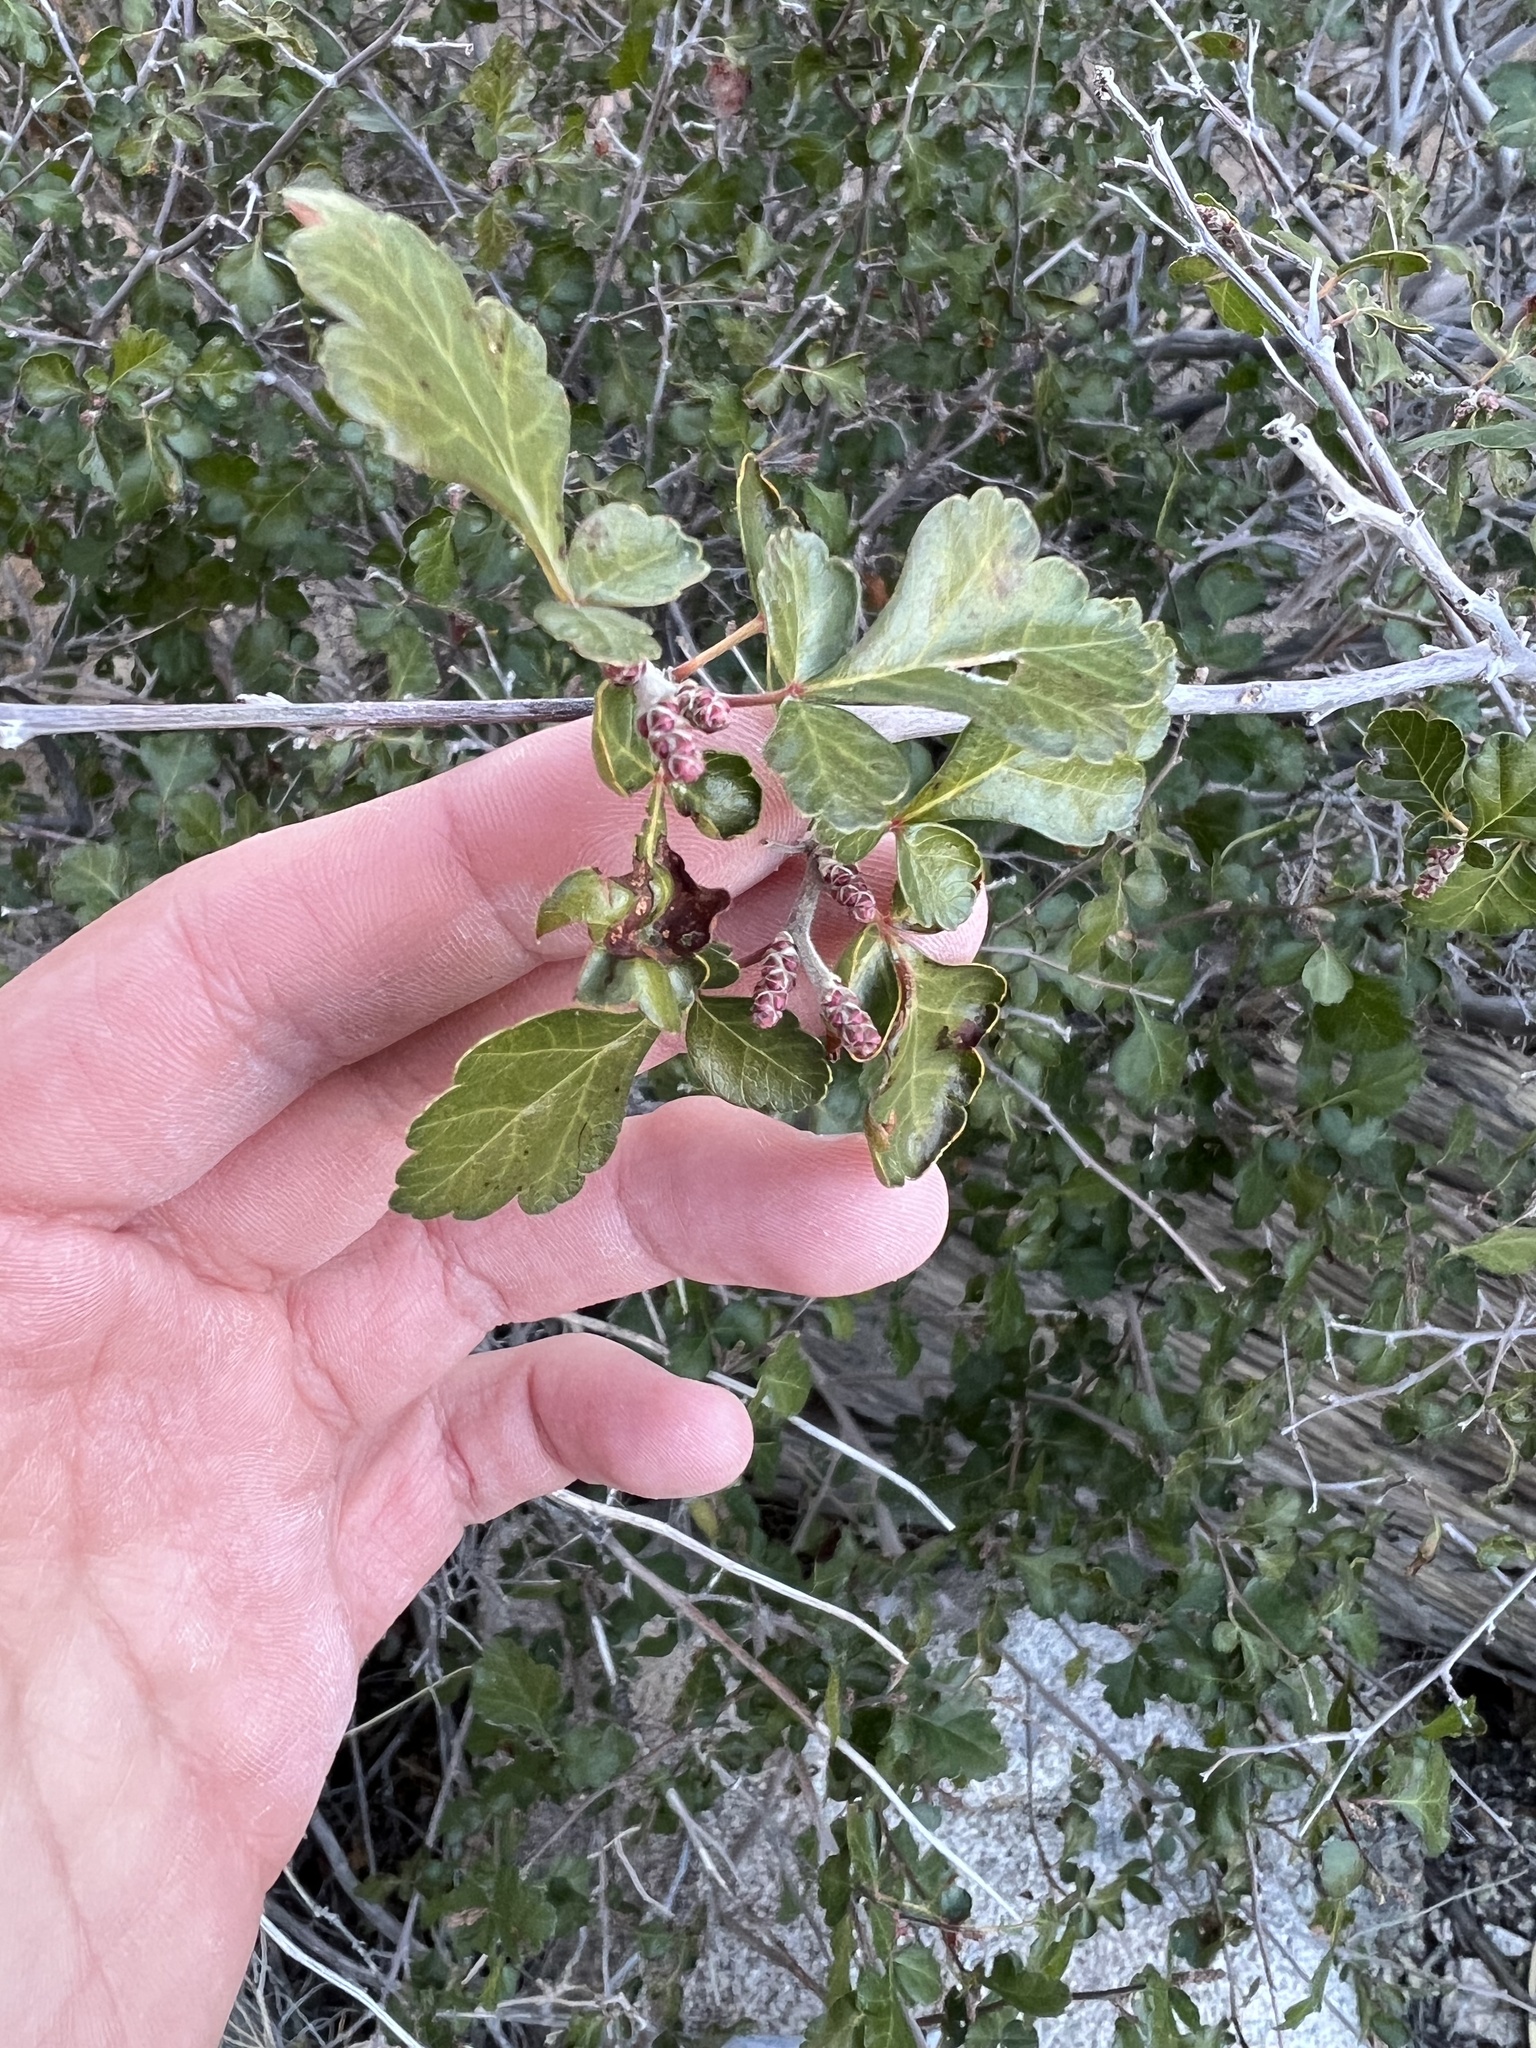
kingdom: Plantae
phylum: Tracheophyta
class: Magnoliopsida
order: Sapindales
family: Anacardiaceae
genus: Rhus
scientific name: Rhus aromatica
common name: Aromatic sumac
